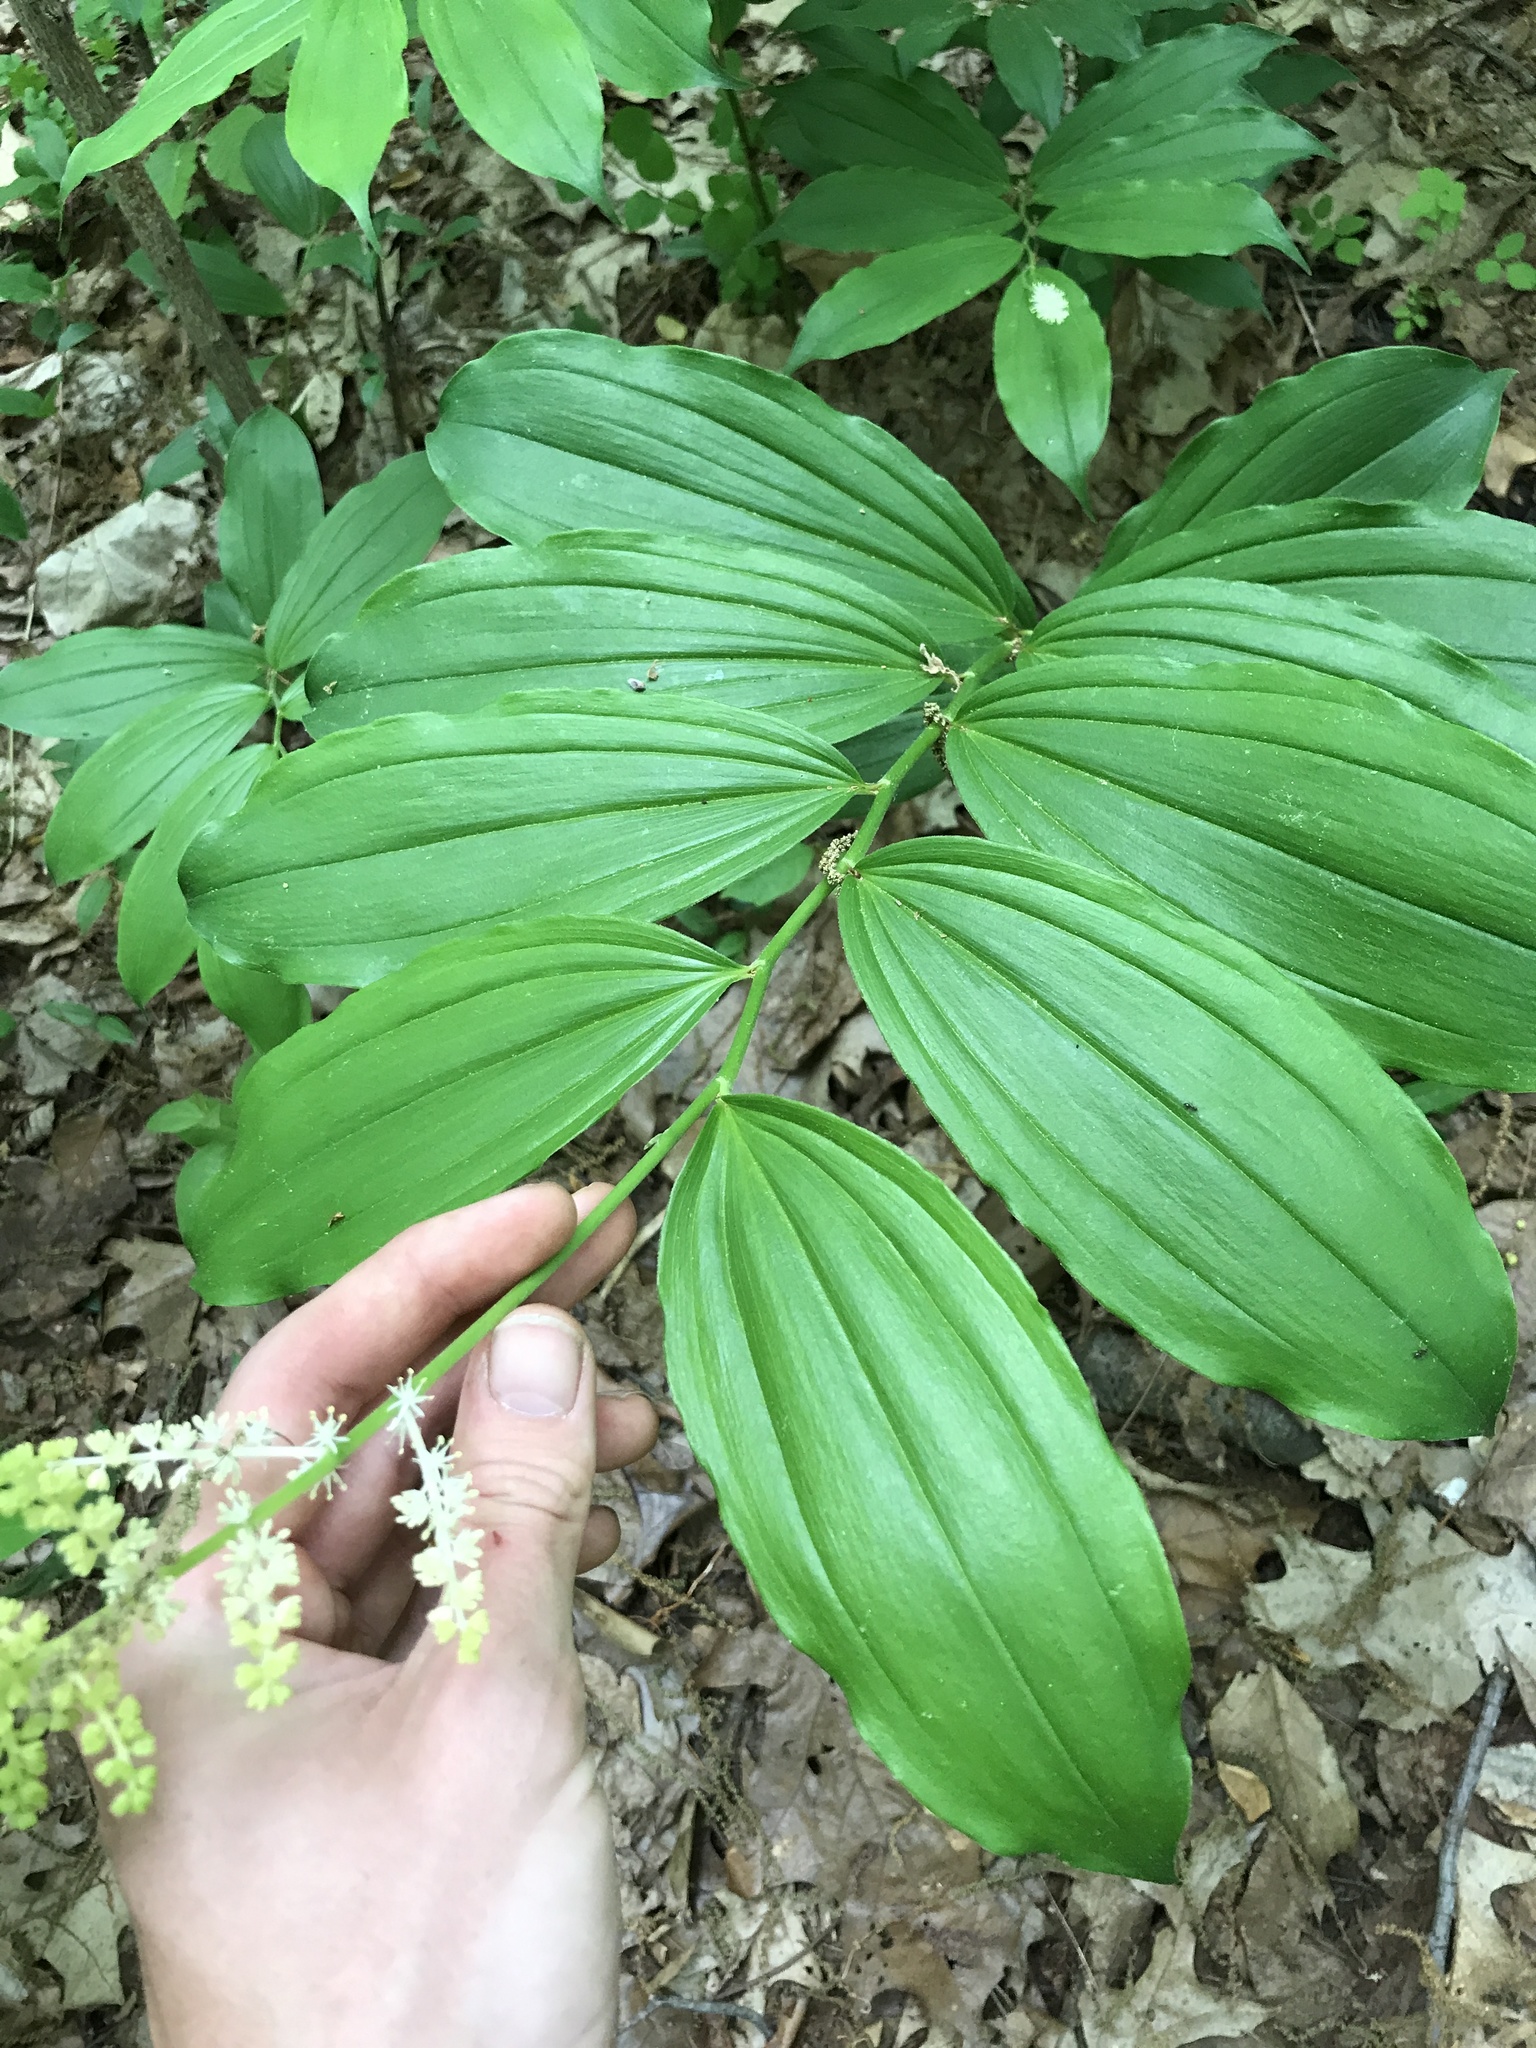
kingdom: Plantae
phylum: Tracheophyta
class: Liliopsida
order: Asparagales
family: Asparagaceae
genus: Maianthemum
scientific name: Maianthemum racemosum
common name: False spikenard
